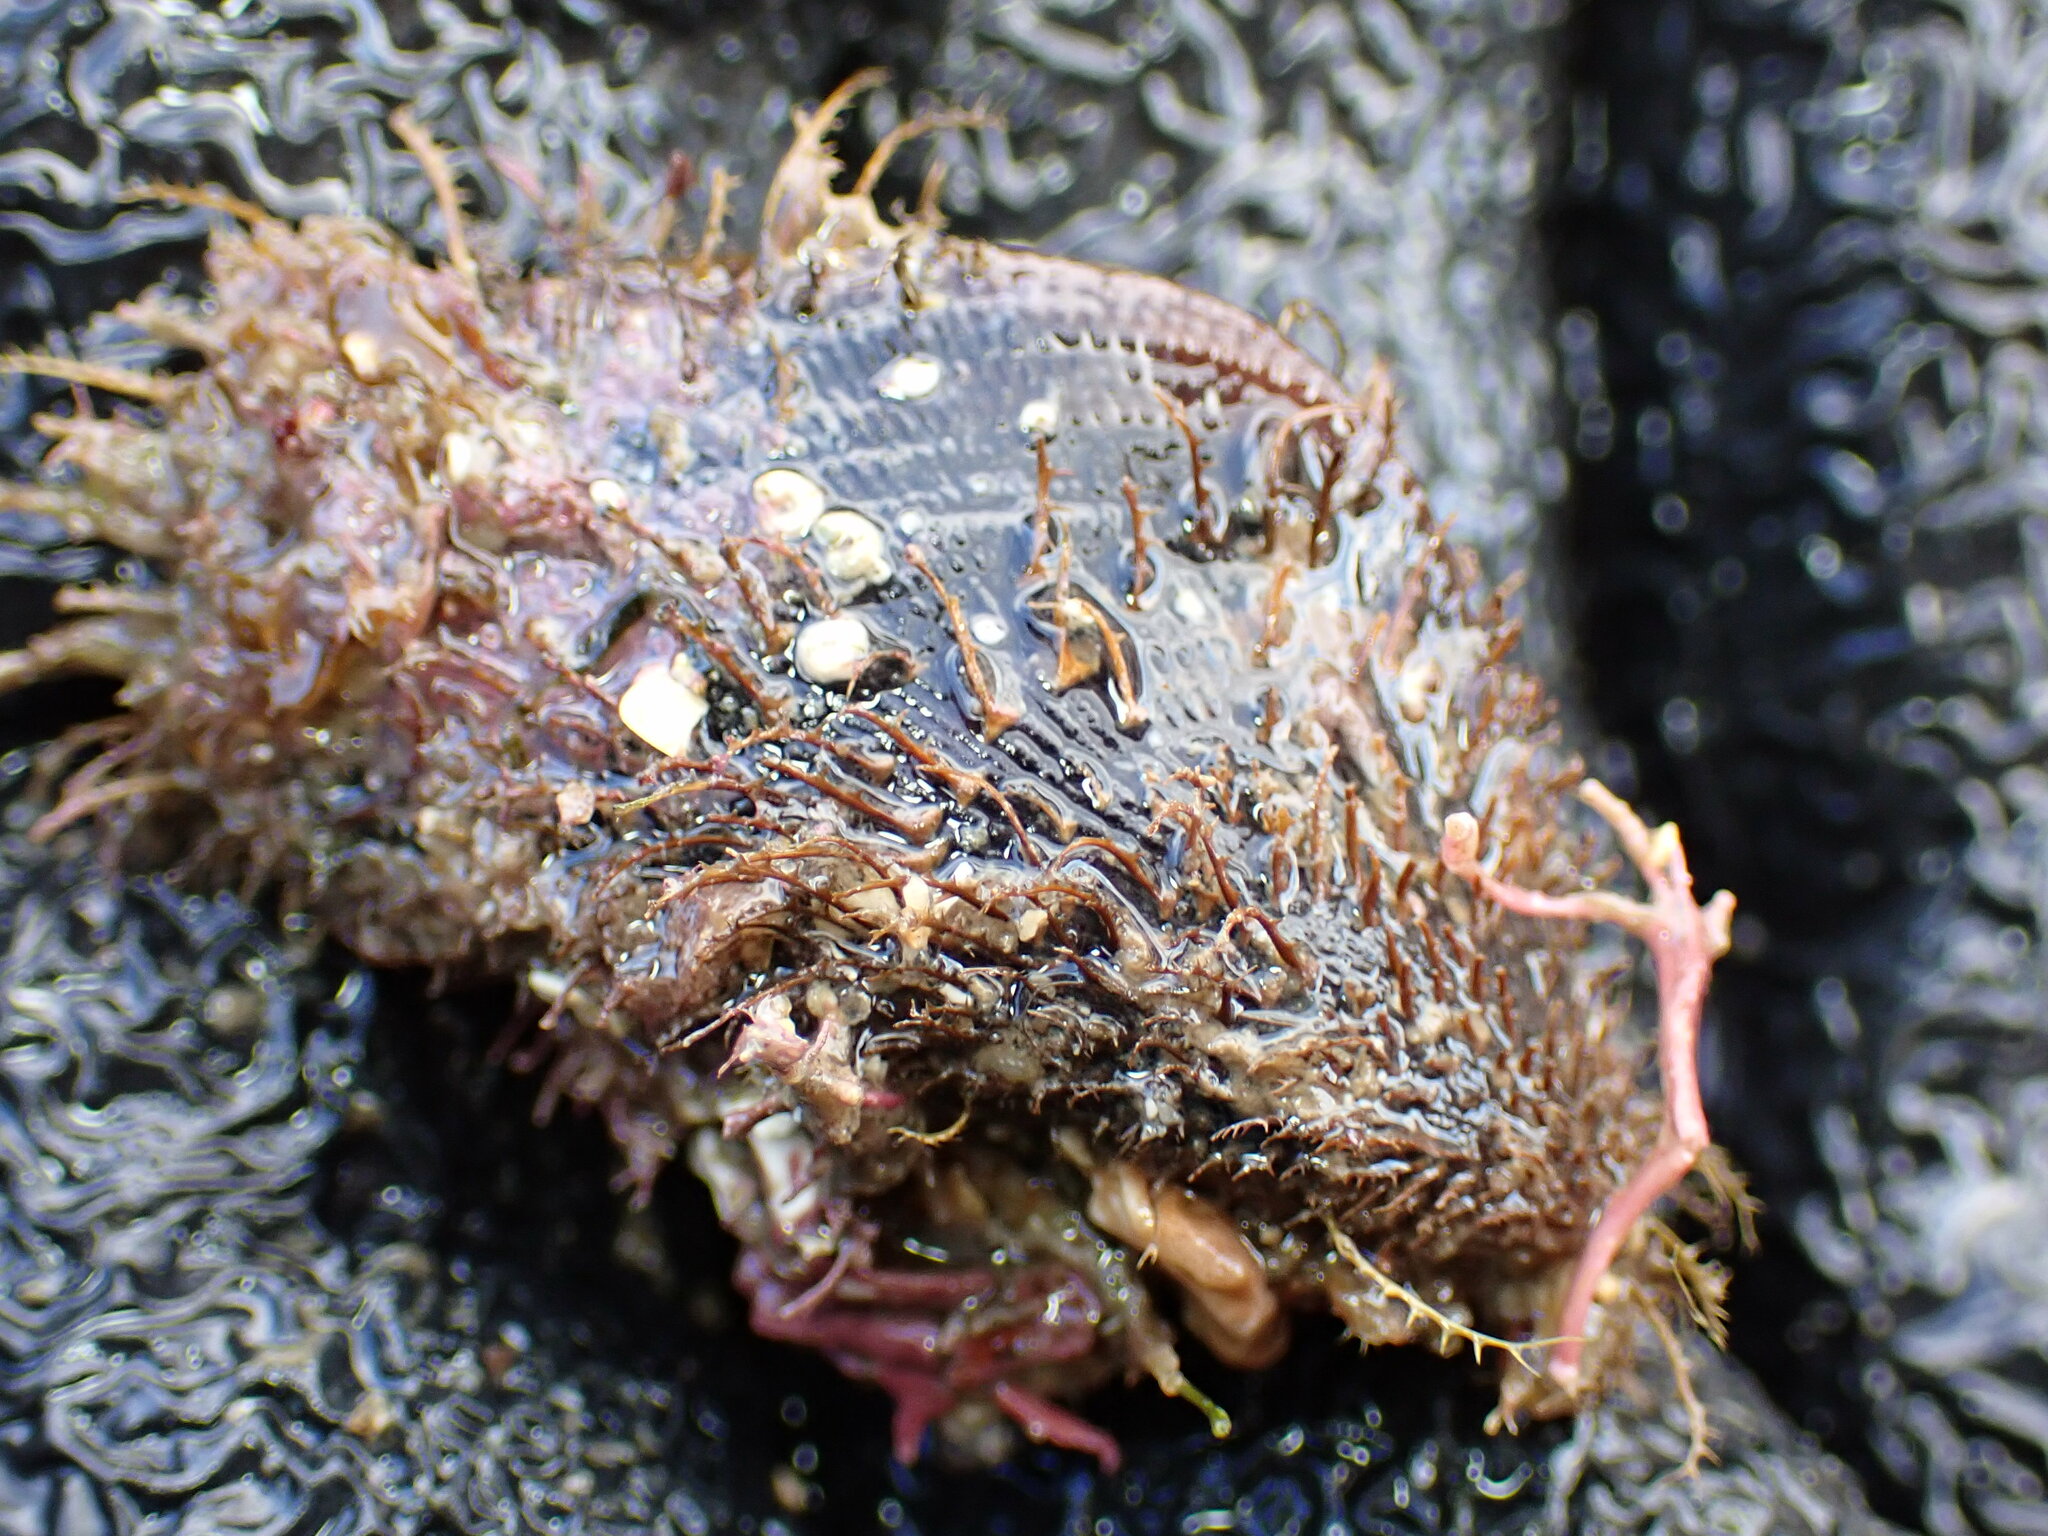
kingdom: Animalia
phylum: Mollusca
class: Bivalvia
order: Mytilida
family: Mytilidae
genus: Trichomya
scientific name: Trichomya hirsuta
